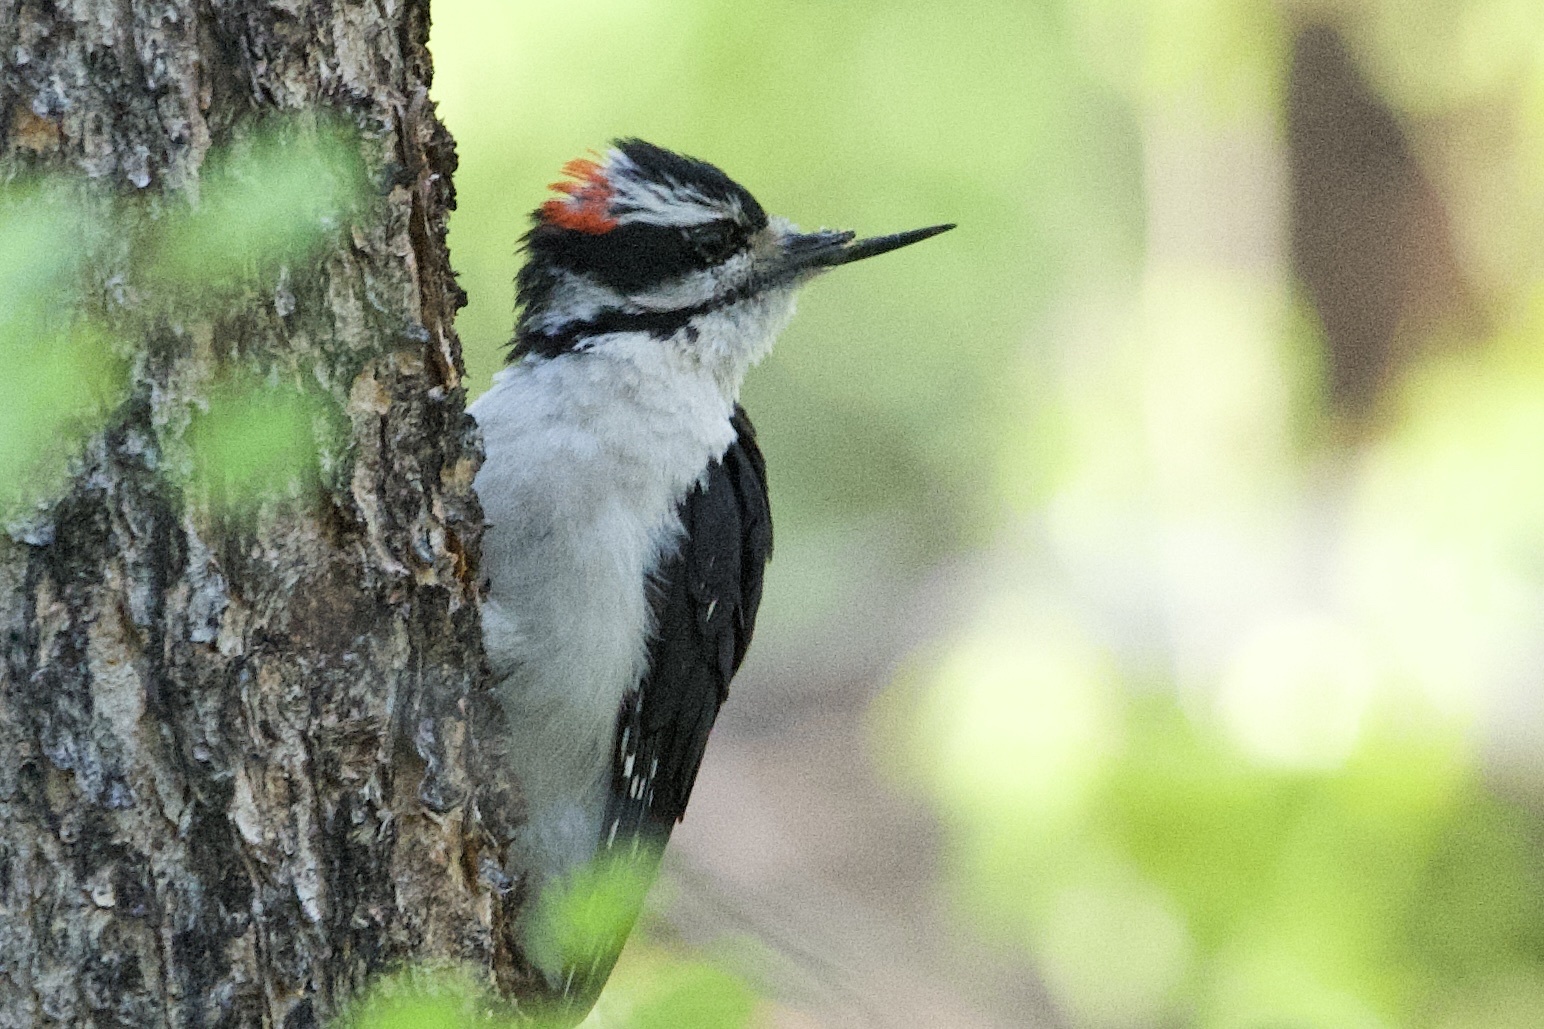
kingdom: Animalia
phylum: Chordata
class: Aves
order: Piciformes
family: Picidae
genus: Leuconotopicus
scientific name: Leuconotopicus villosus
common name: Hairy woodpecker
